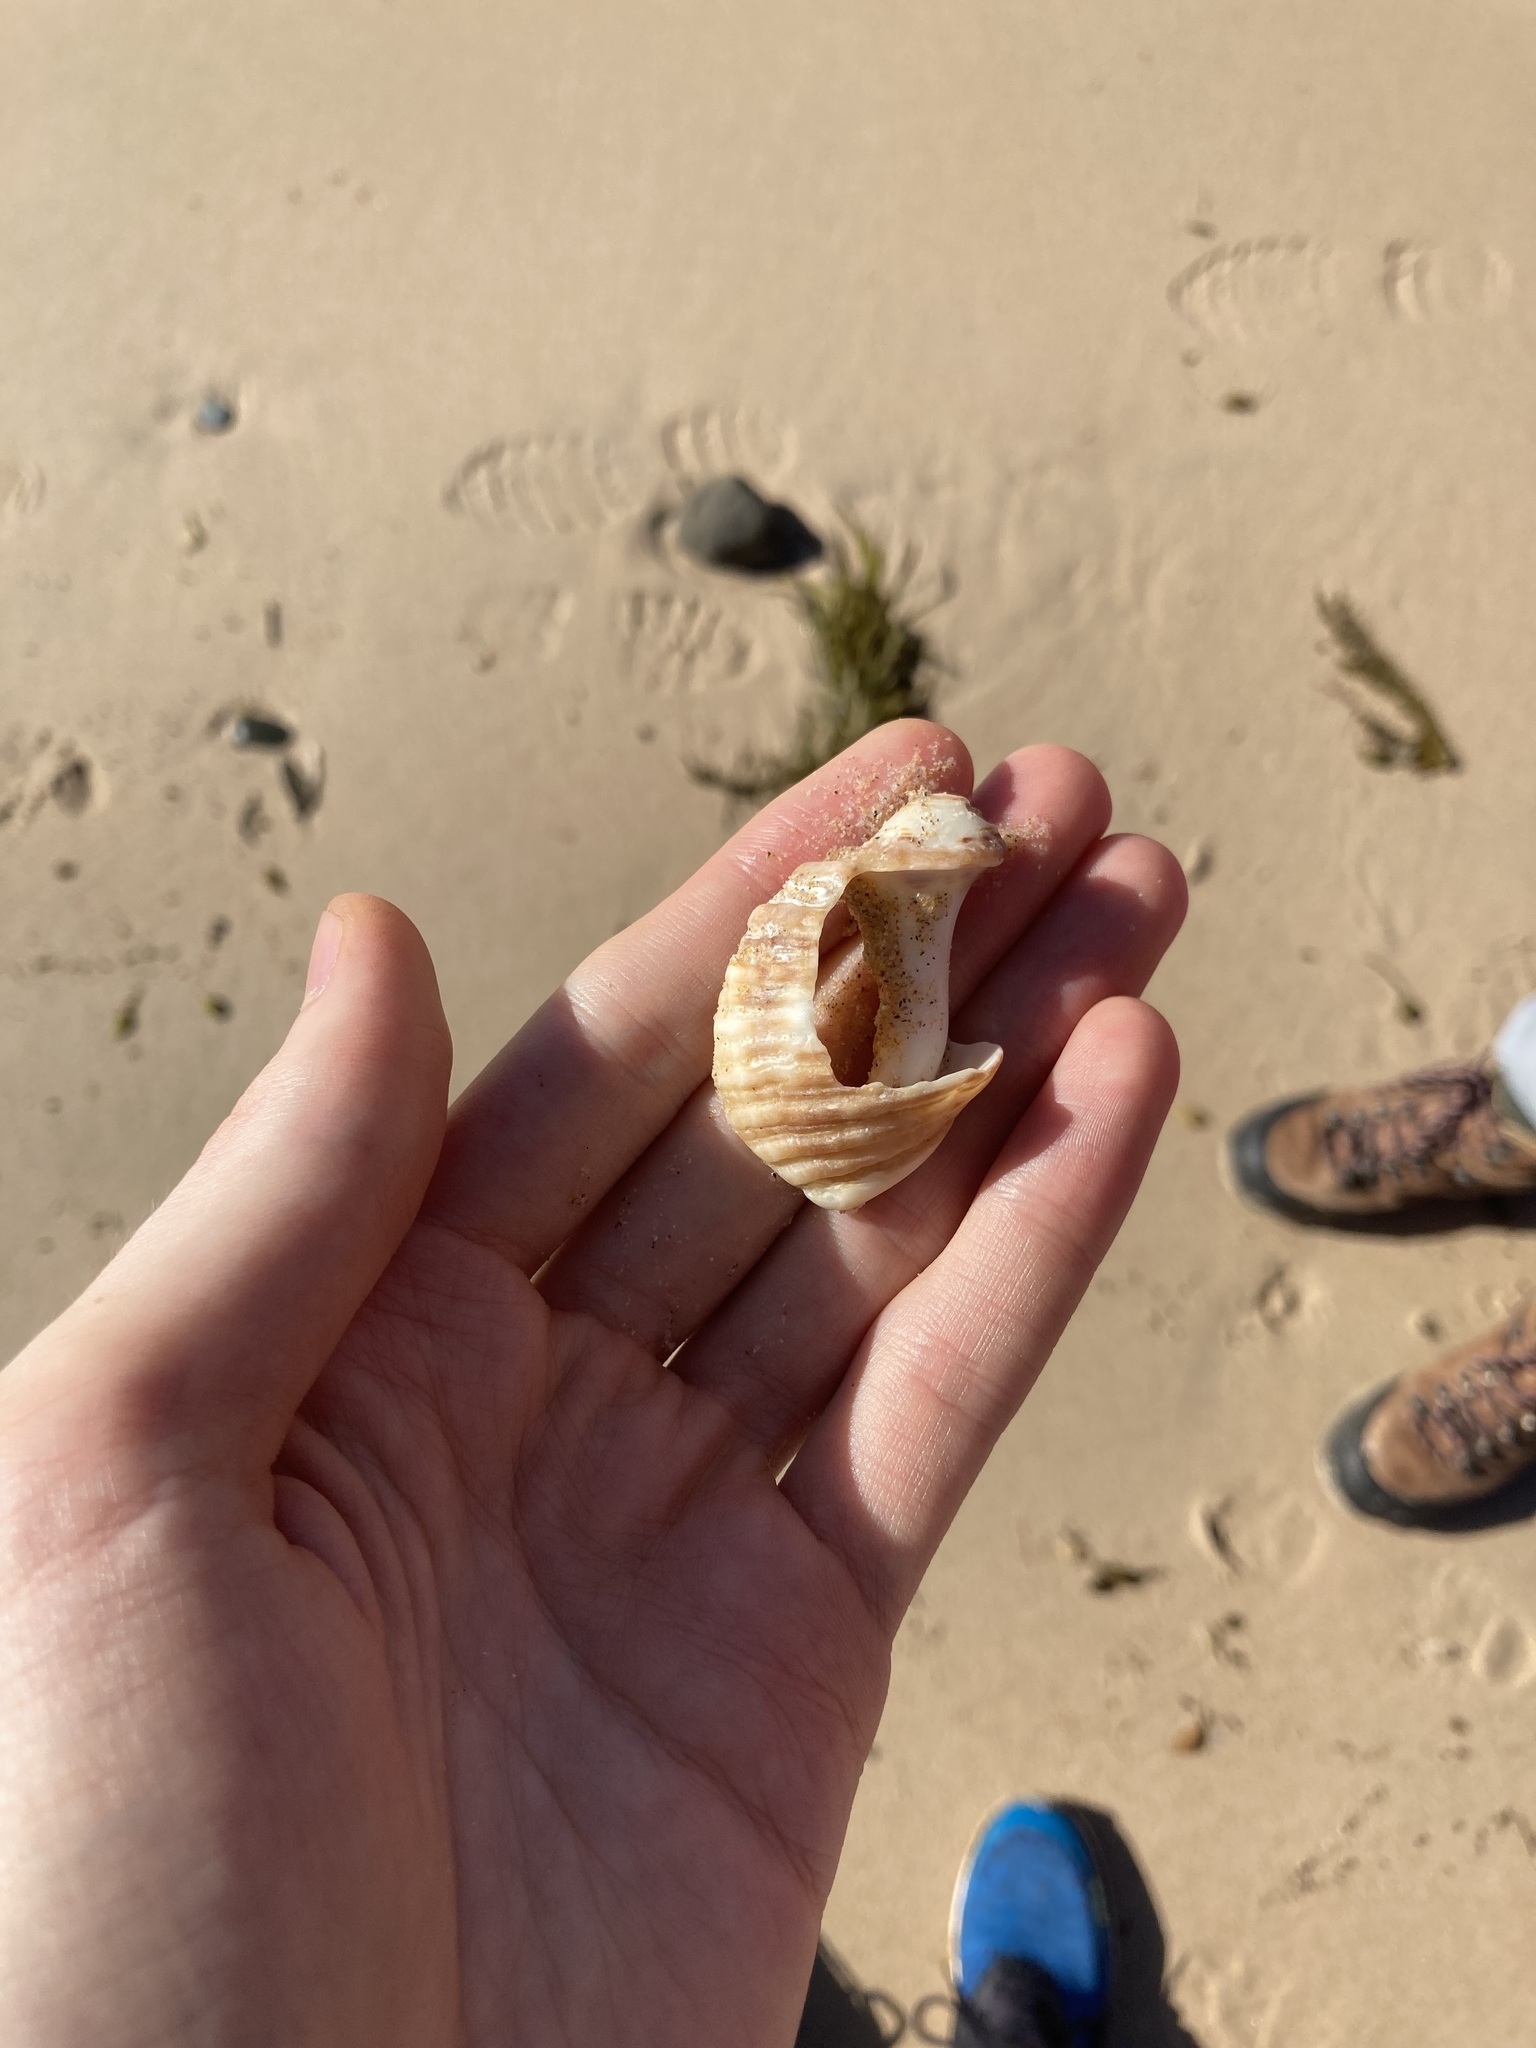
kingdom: Animalia
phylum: Mollusca
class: Gastropoda
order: Neogastropoda
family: Muricidae
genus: Dicathais
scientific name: Dicathais orbita
